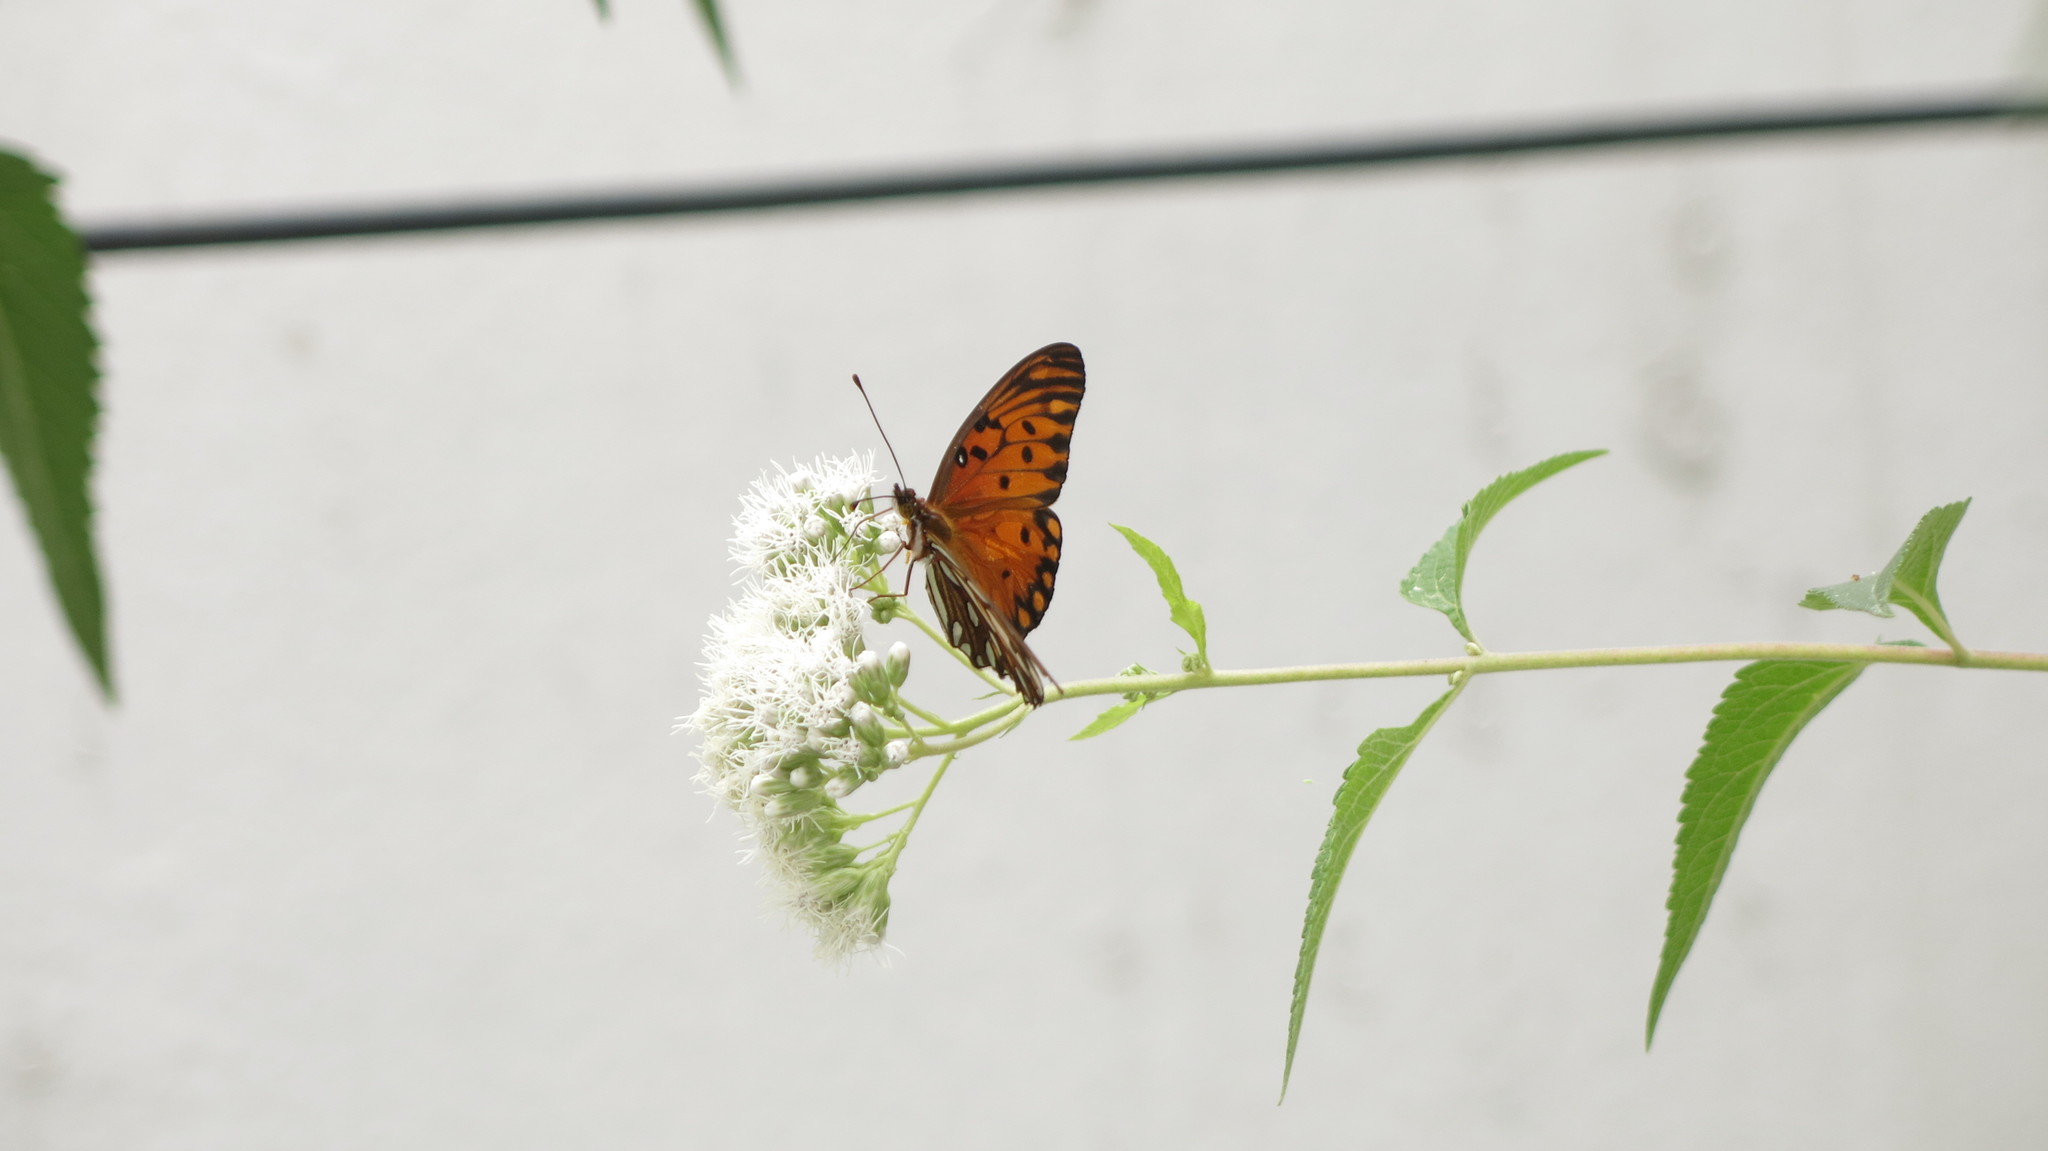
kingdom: Animalia
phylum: Arthropoda
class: Insecta
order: Lepidoptera
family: Nymphalidae
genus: Dione
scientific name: Dione vanillae
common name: Gulf fritillary
